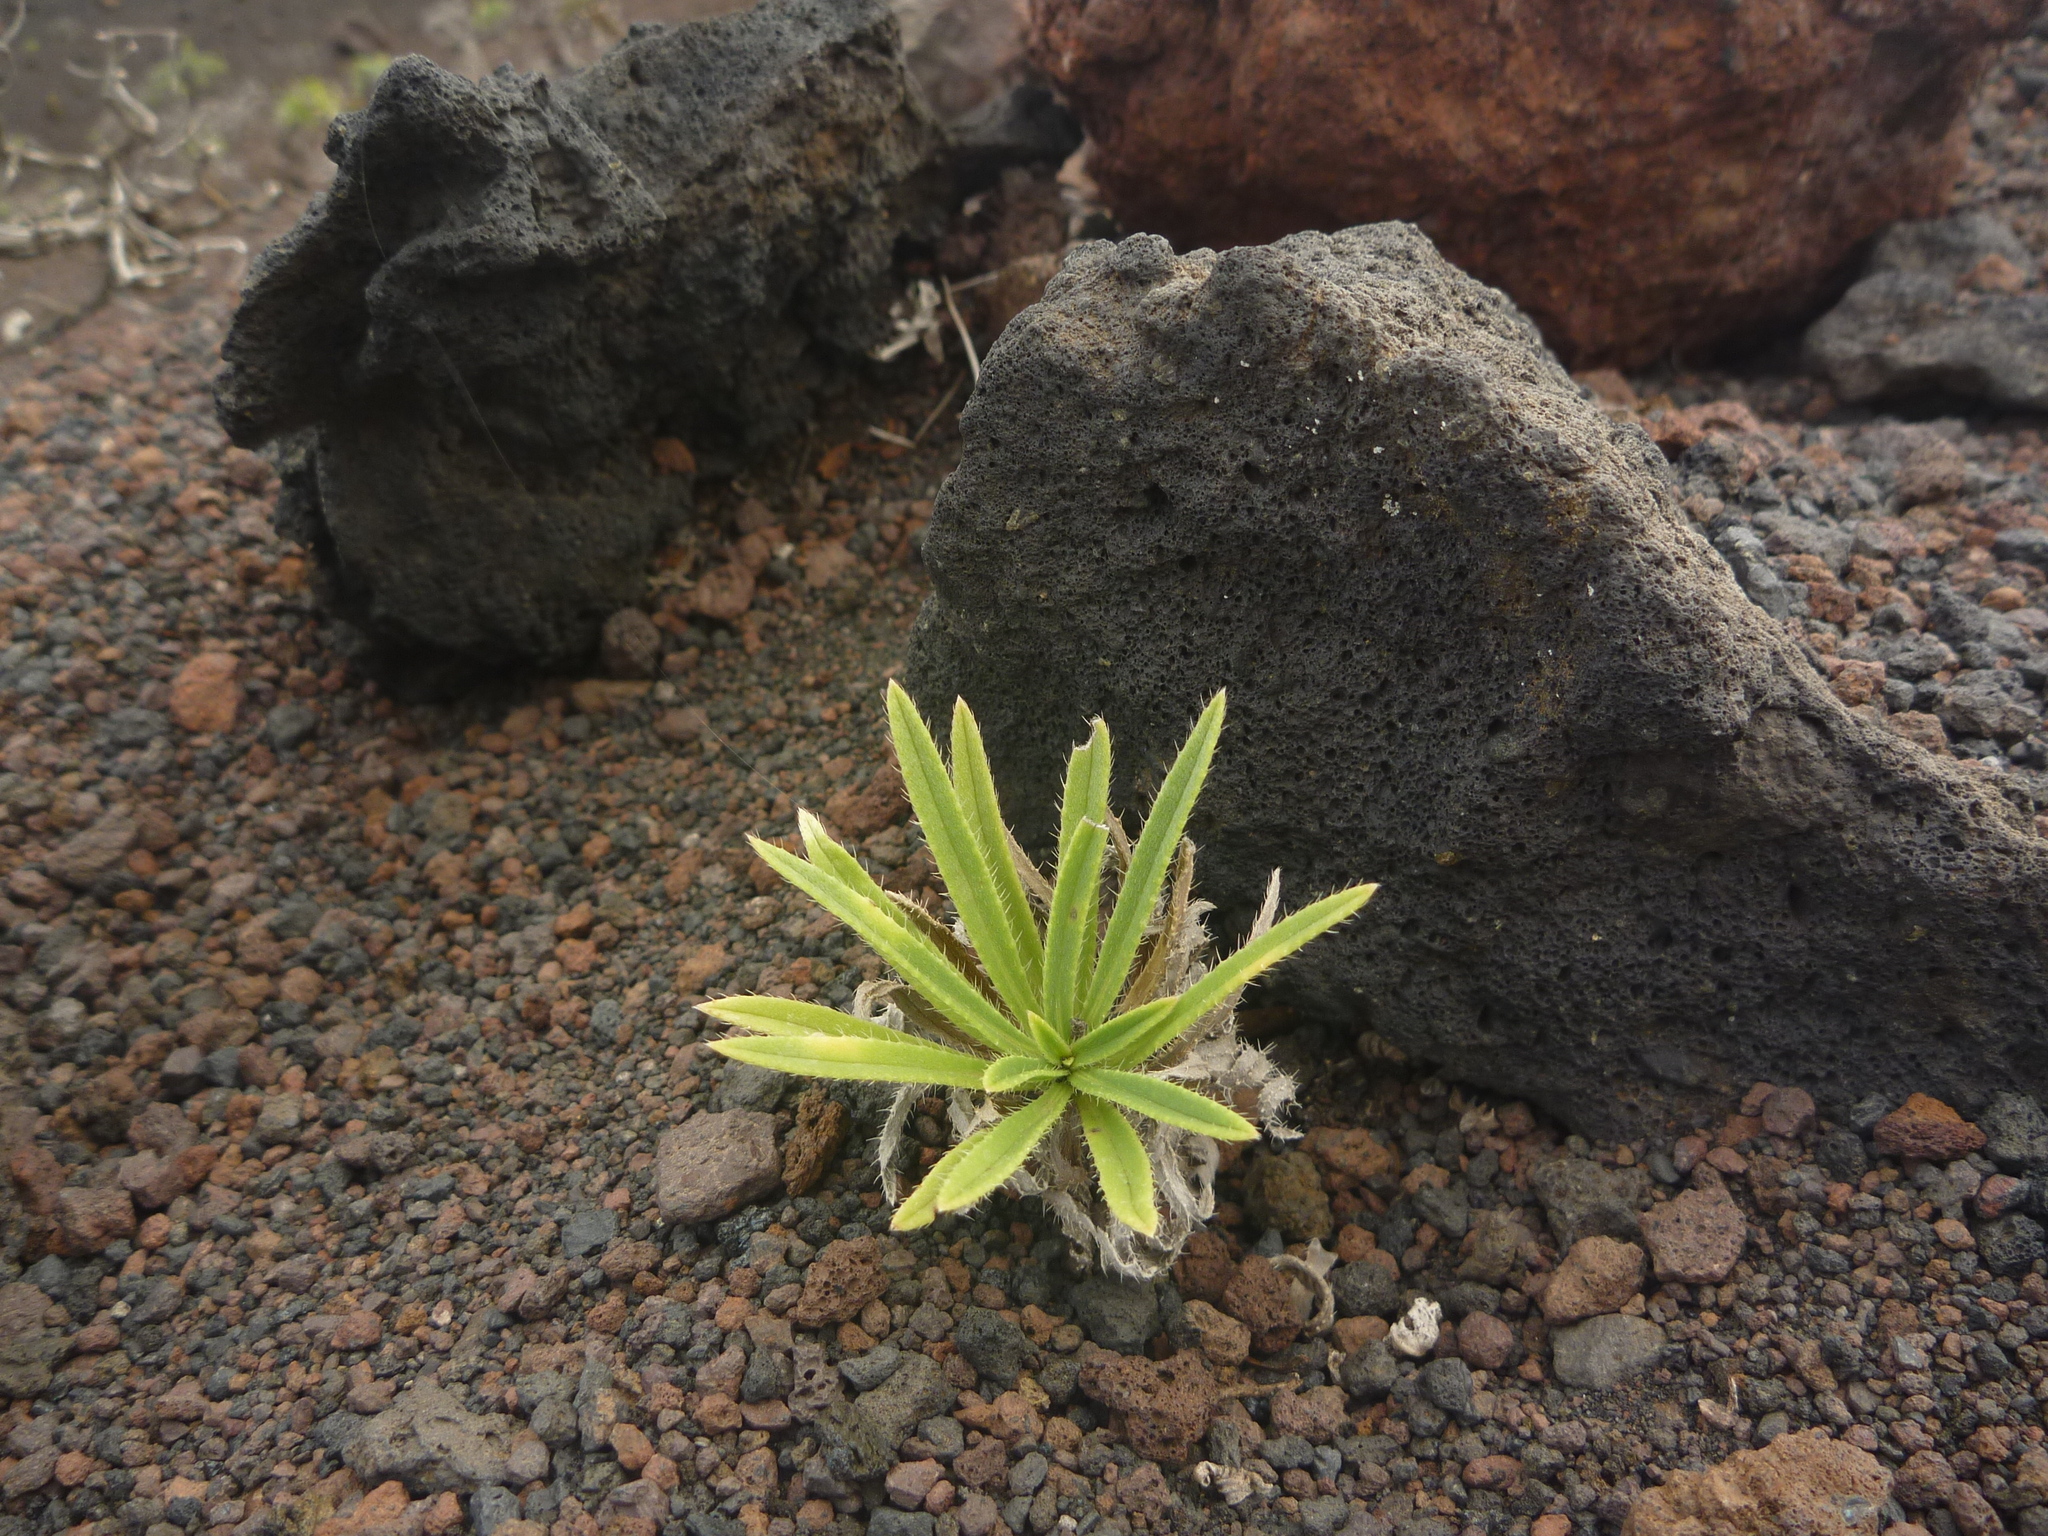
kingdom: Plantae
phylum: Tracheophyta
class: Magnoliopsida
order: Boraginales
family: Boraginaceae
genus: Echium
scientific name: Echium brevirame
